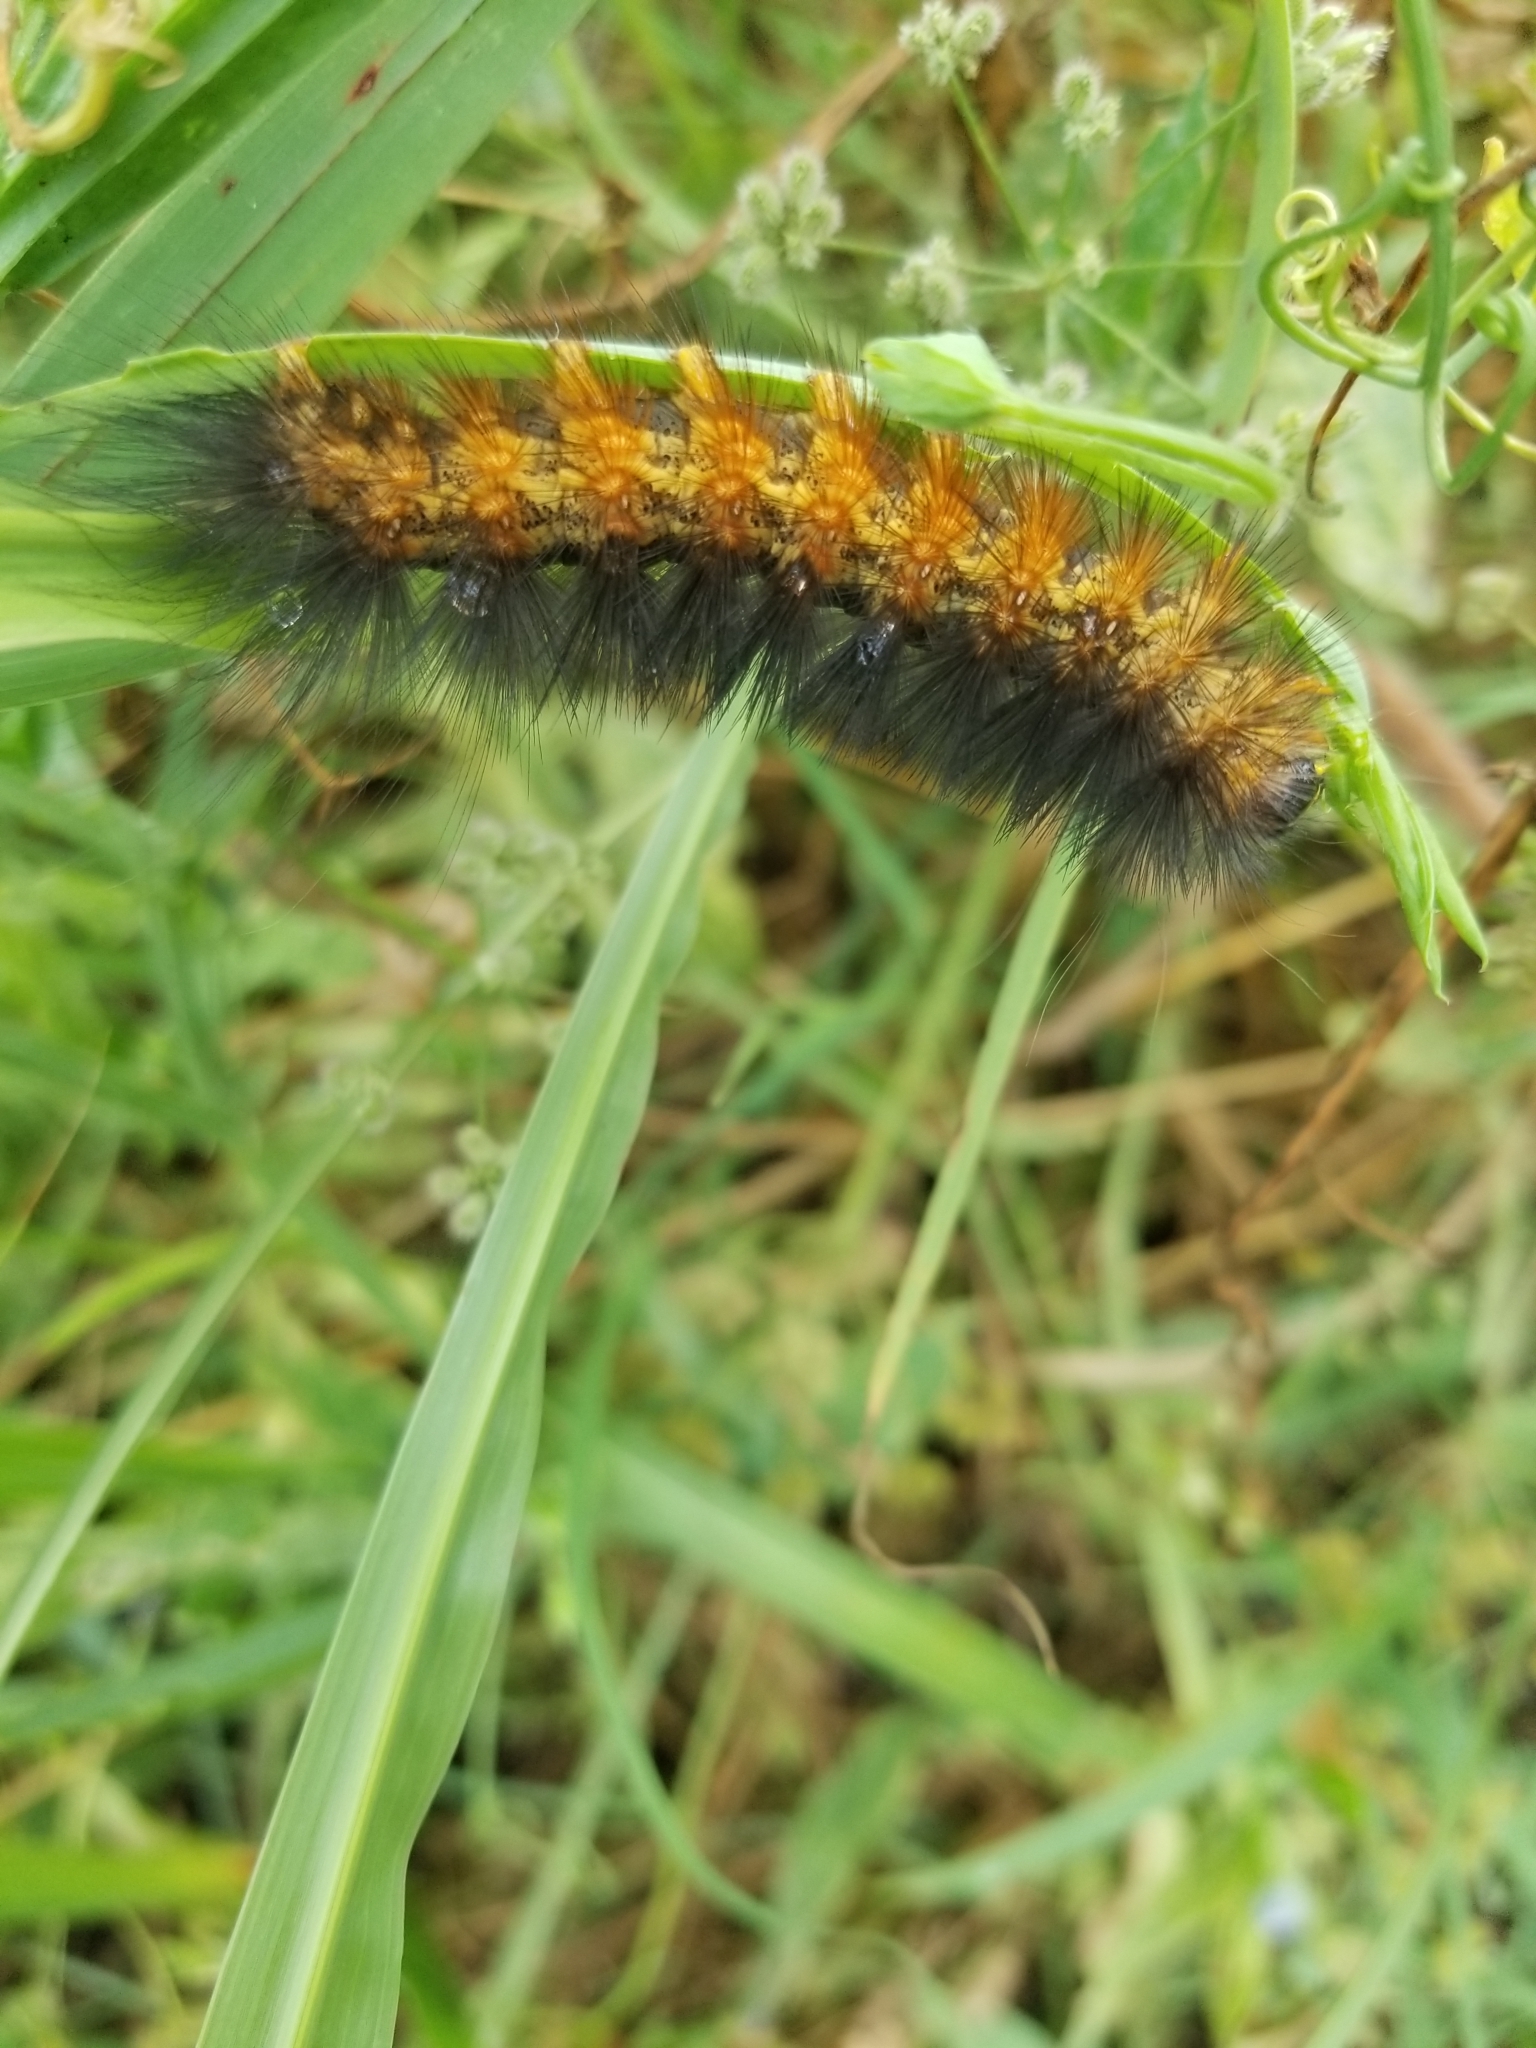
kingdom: Animalia
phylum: Arthropoda
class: Insecta
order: Lepidoptera
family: Erebidae
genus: Estigmene
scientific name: Estigmene acrea
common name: Salt marsh moth
